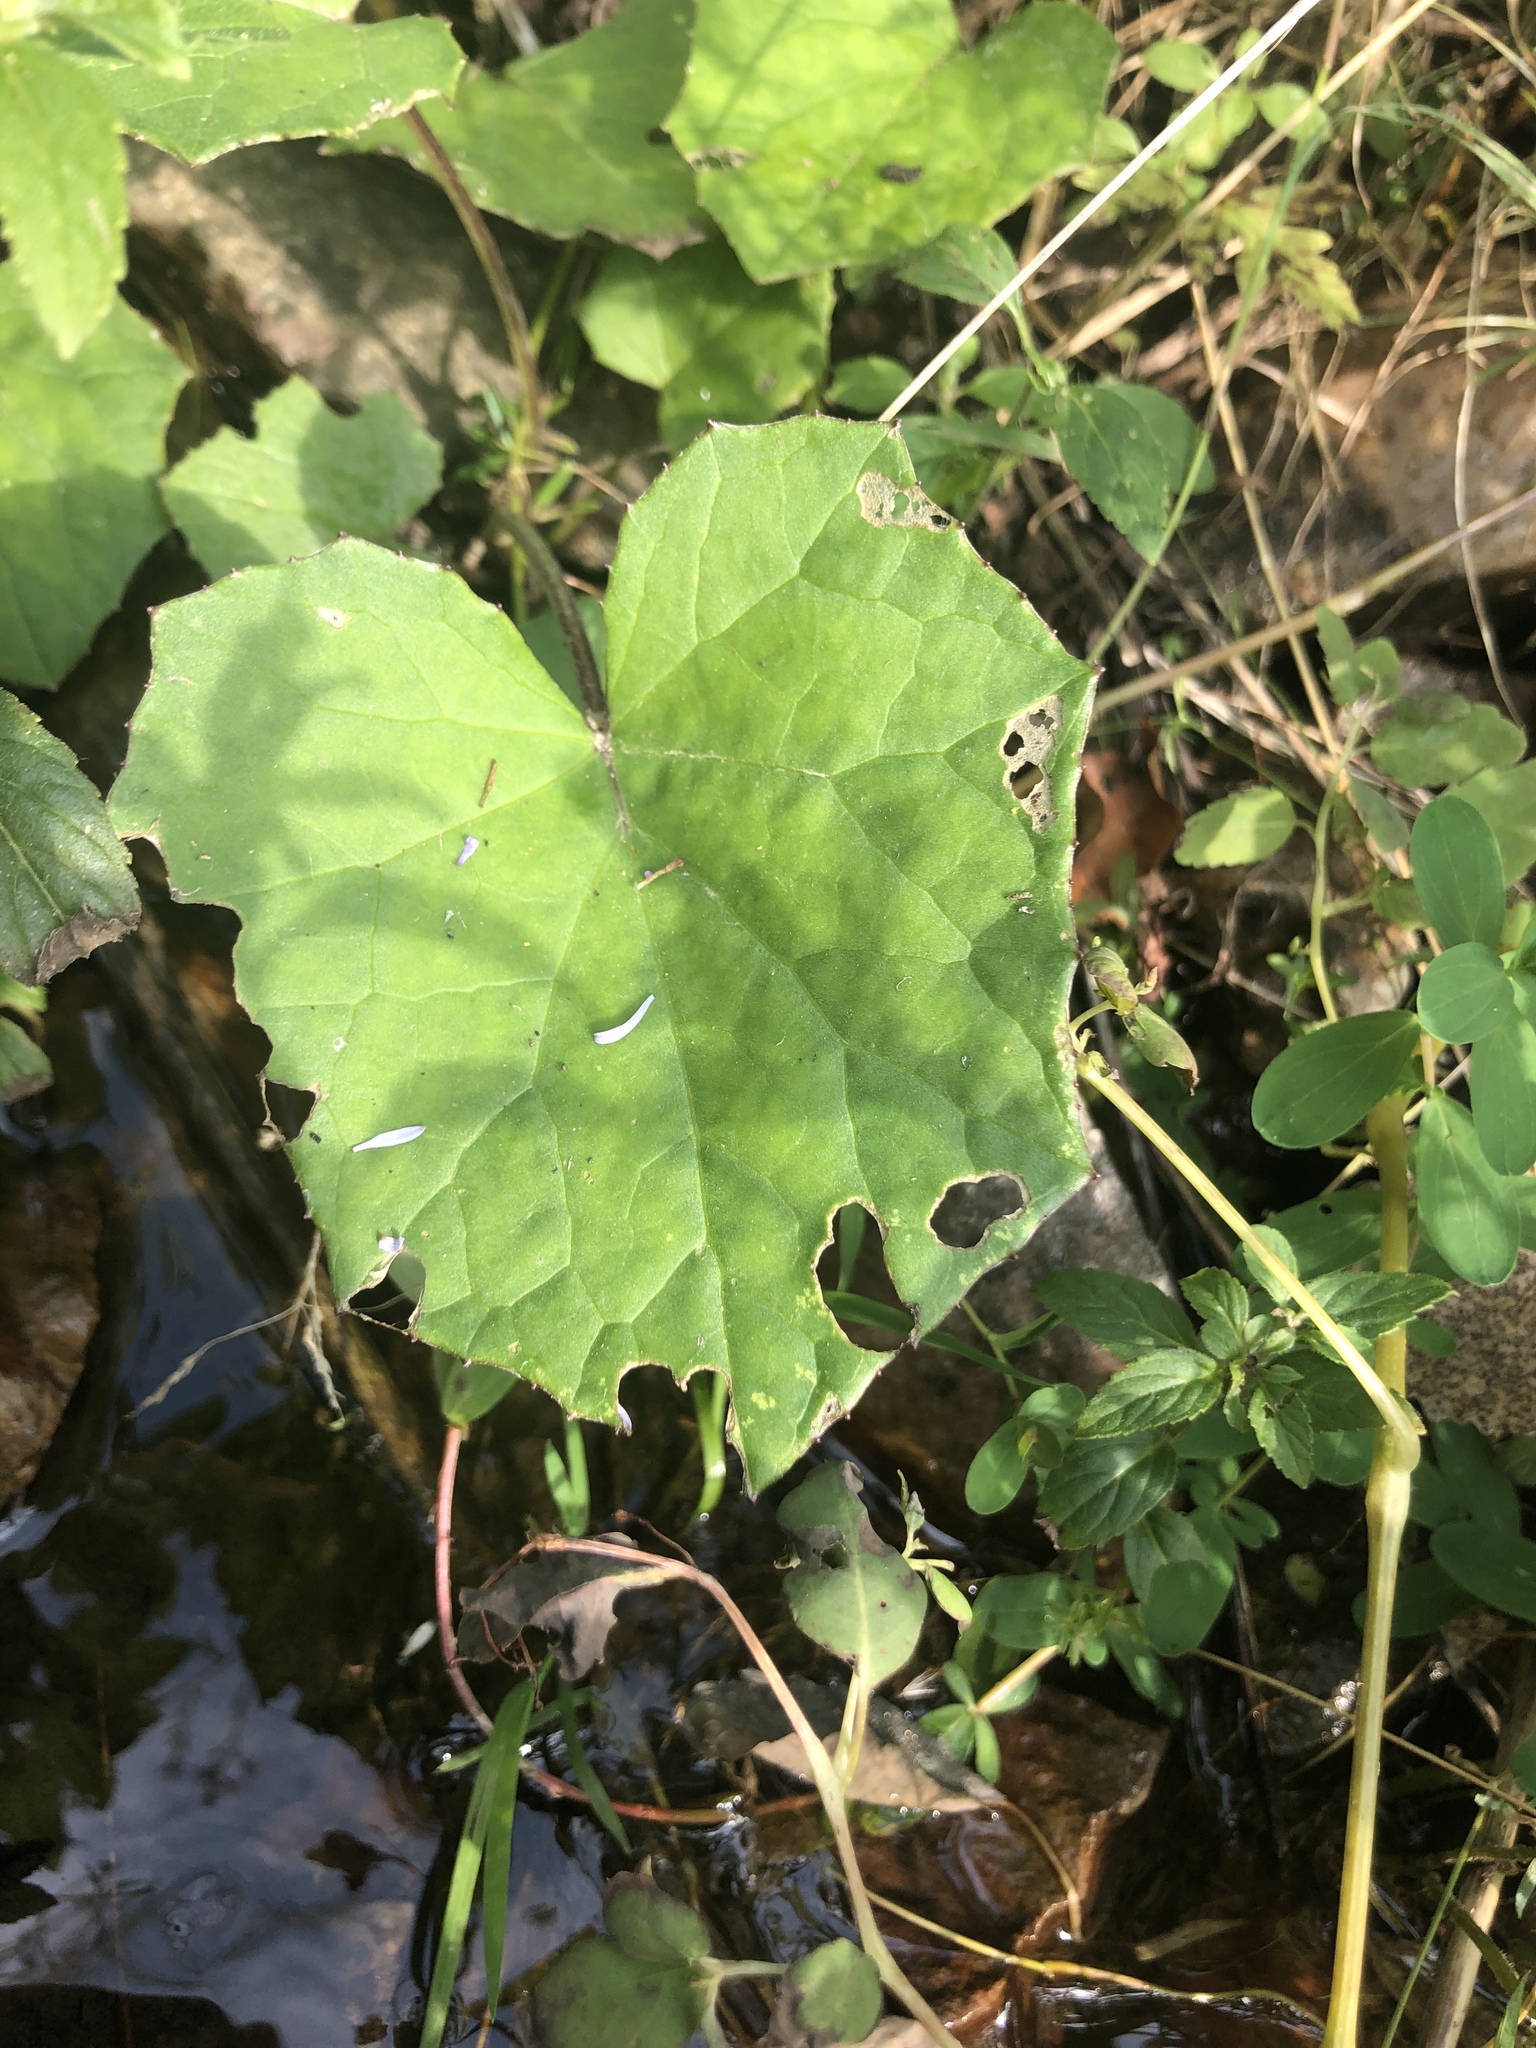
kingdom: Plantae
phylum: Tracheophyta
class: Magnoliopsida
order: Asterales
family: Asteraceae
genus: Tussilago
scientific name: Tussilago farfara
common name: Coltsfoot
